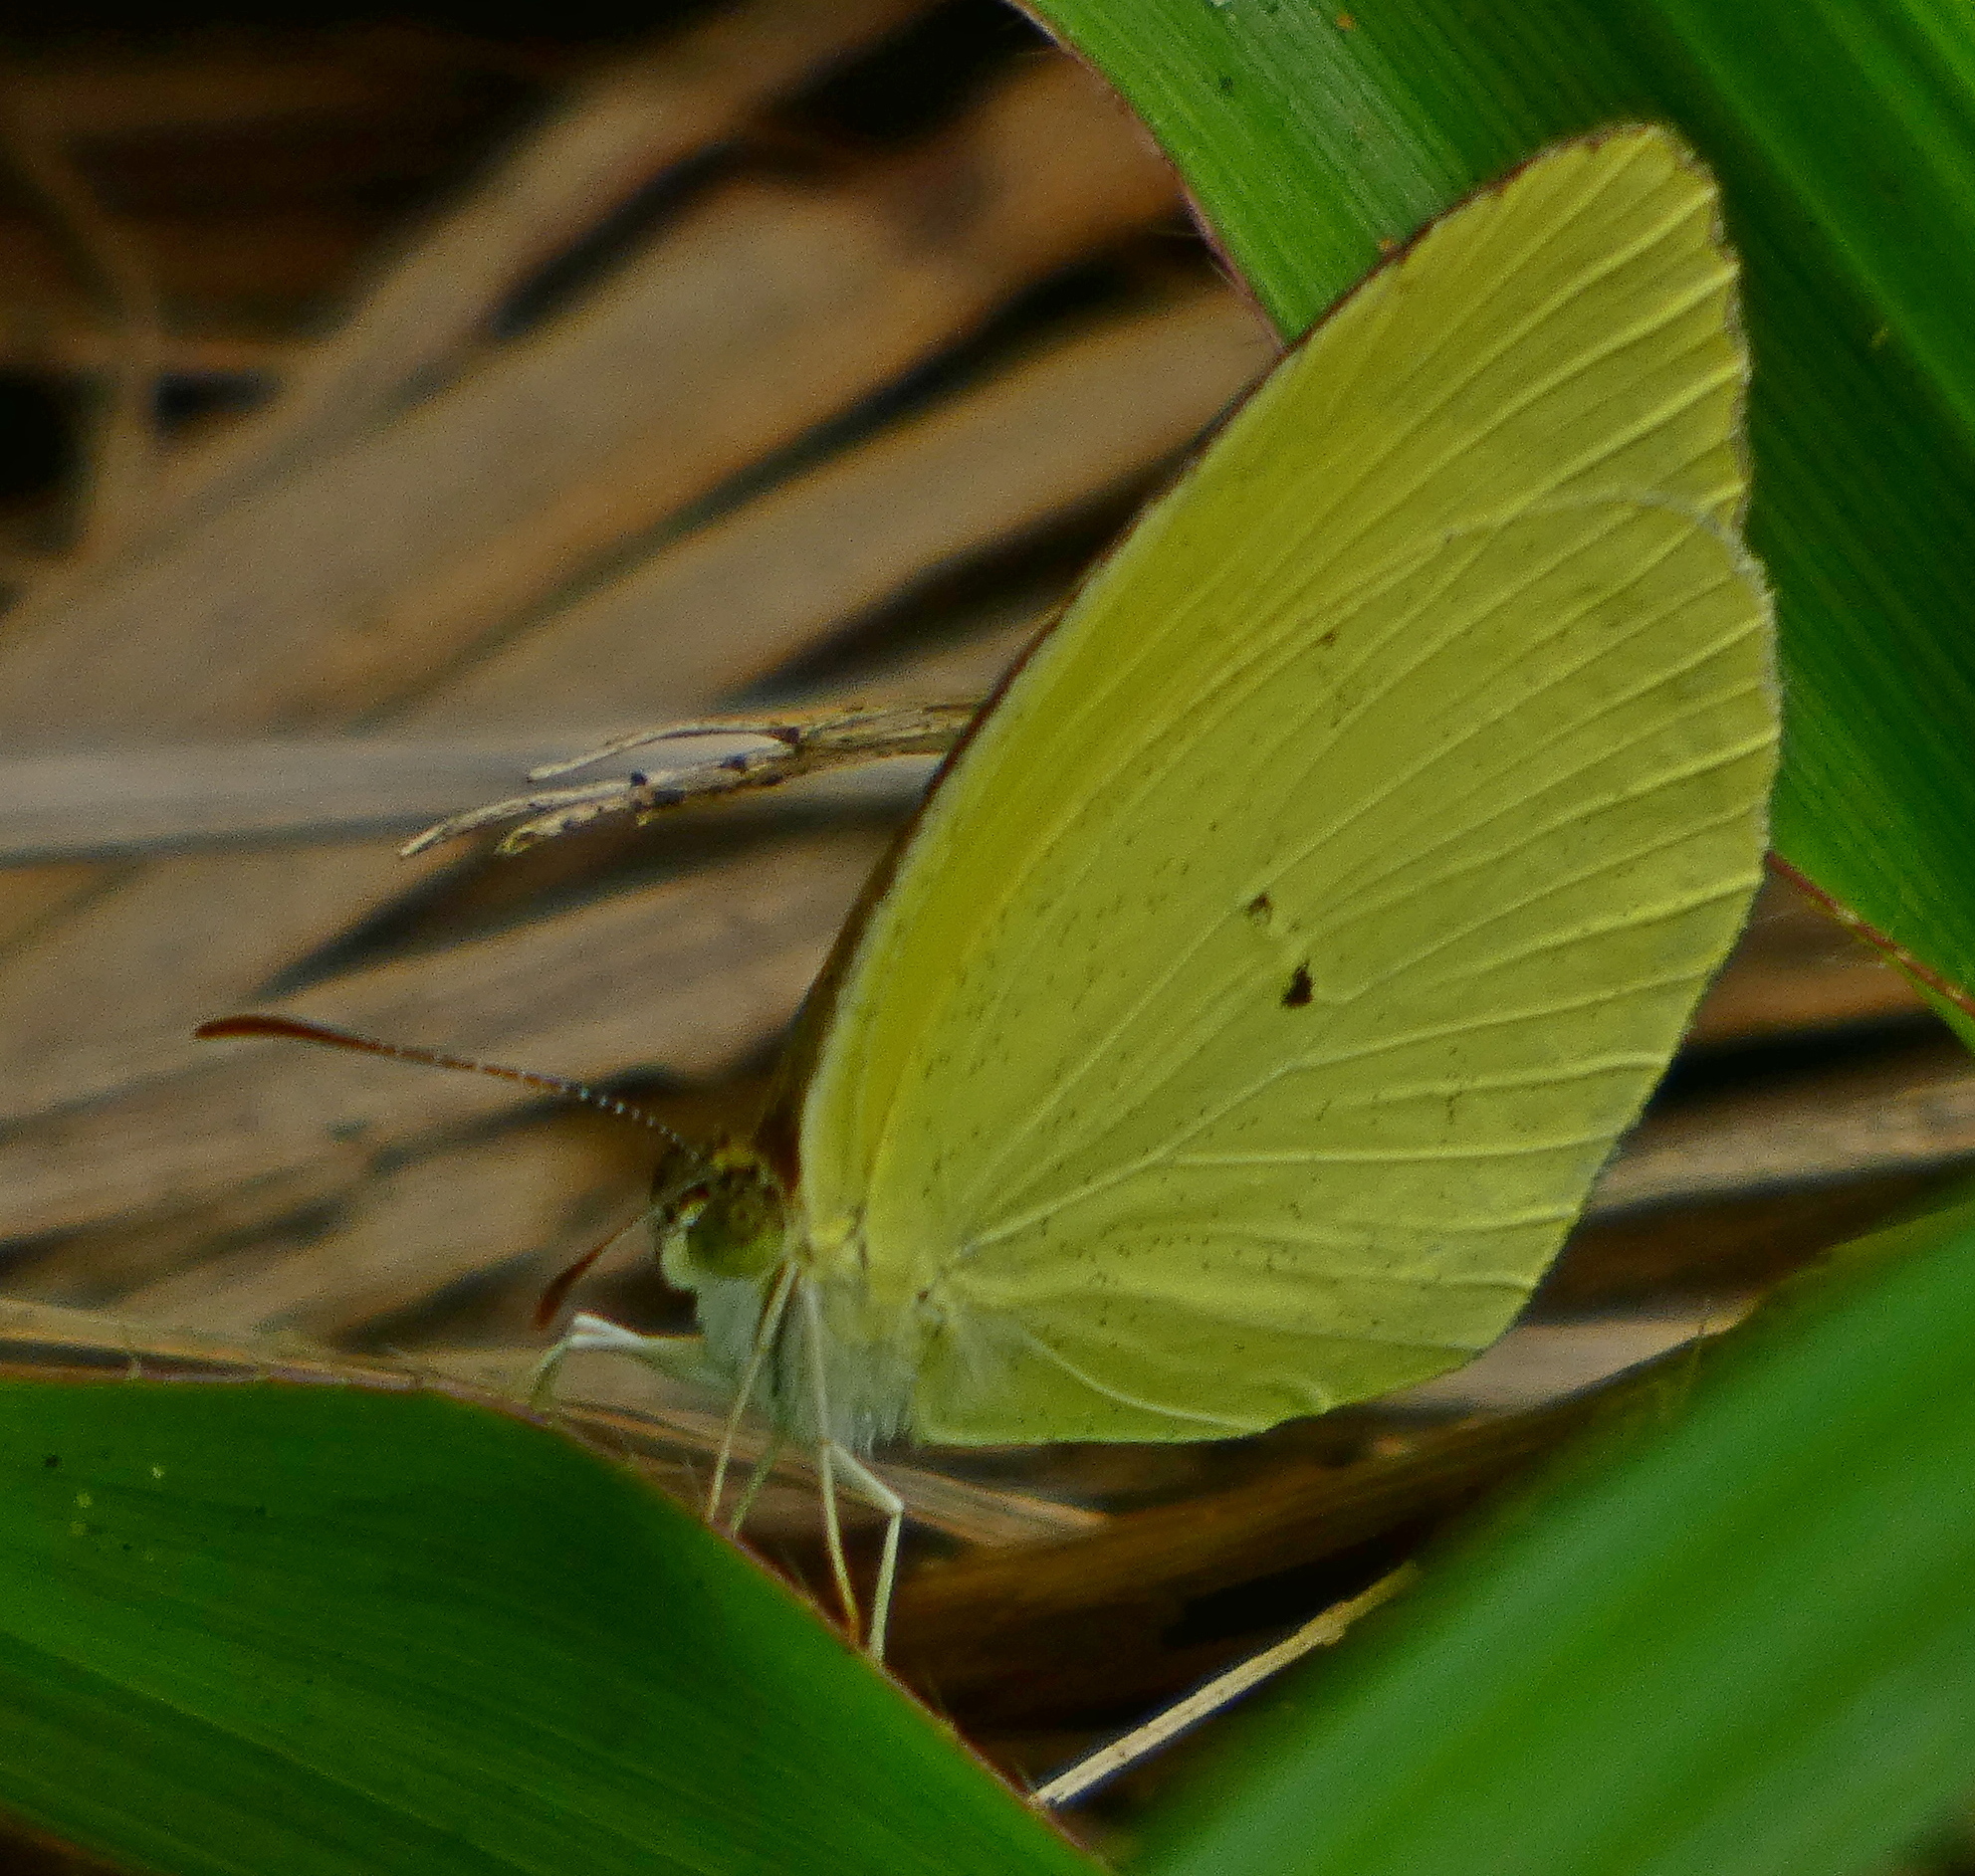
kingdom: Animalia
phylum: Arthropoda
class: Insecta
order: Lepidoptera
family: Pieridae
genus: Pyrisitia
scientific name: Pyrisitia nise
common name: Mimosa yellow
